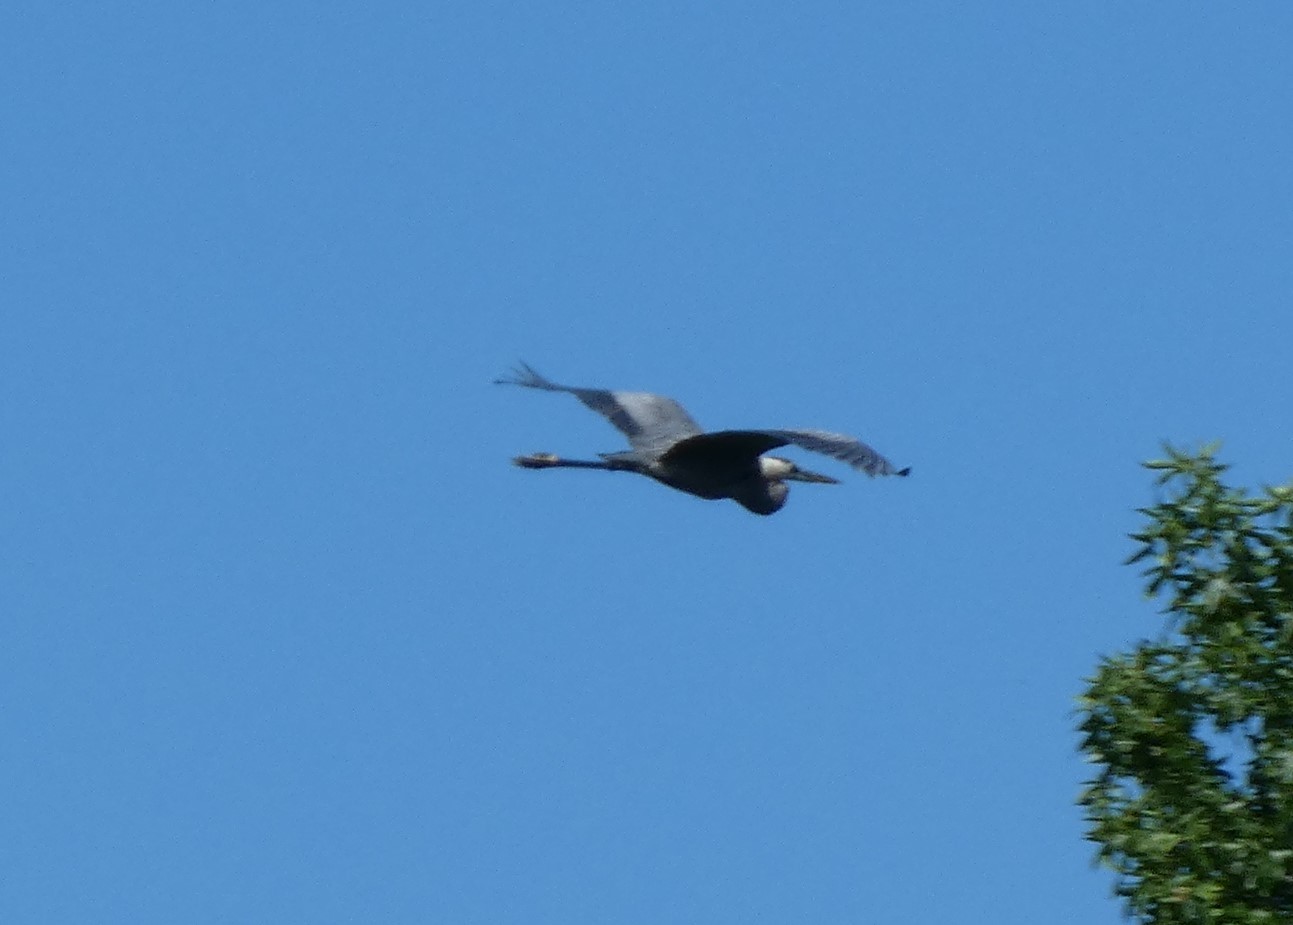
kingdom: Animalia
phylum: Chordata
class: Aves
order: Pelecaniformes
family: Ardeidae
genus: Ardea
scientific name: Ardea herodias
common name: Great blue heron
